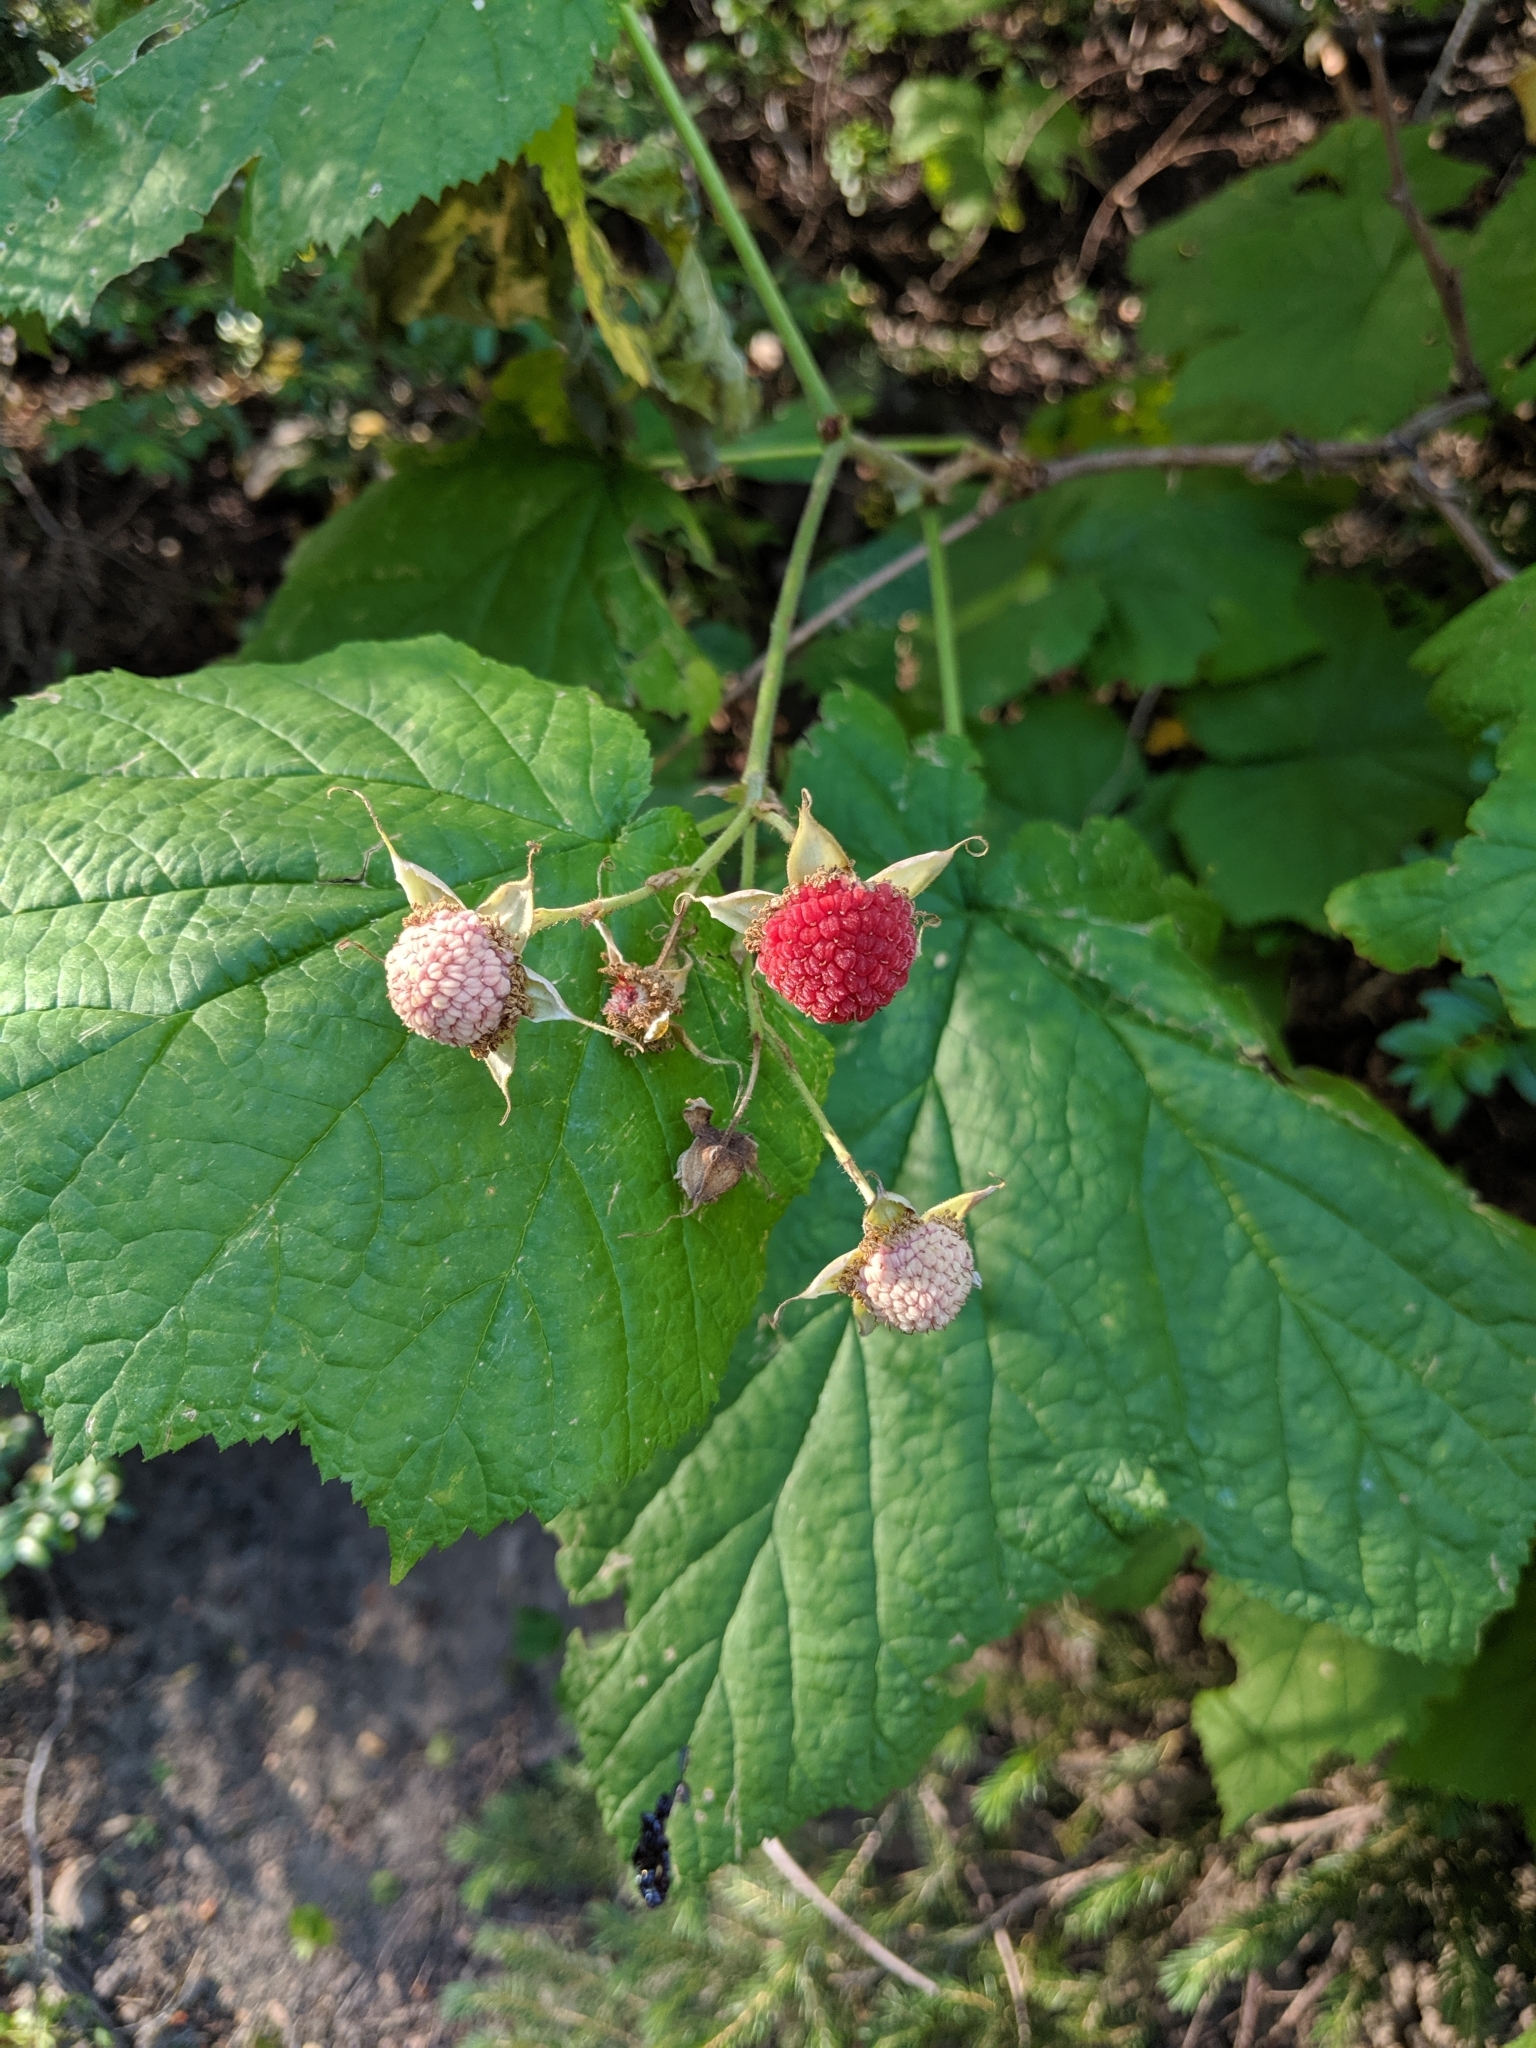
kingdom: Plantae
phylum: Tracheophyta
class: Magnoliopsida
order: Rosales
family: Rosaceae
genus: Rubus
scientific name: Rubus parviflorus
